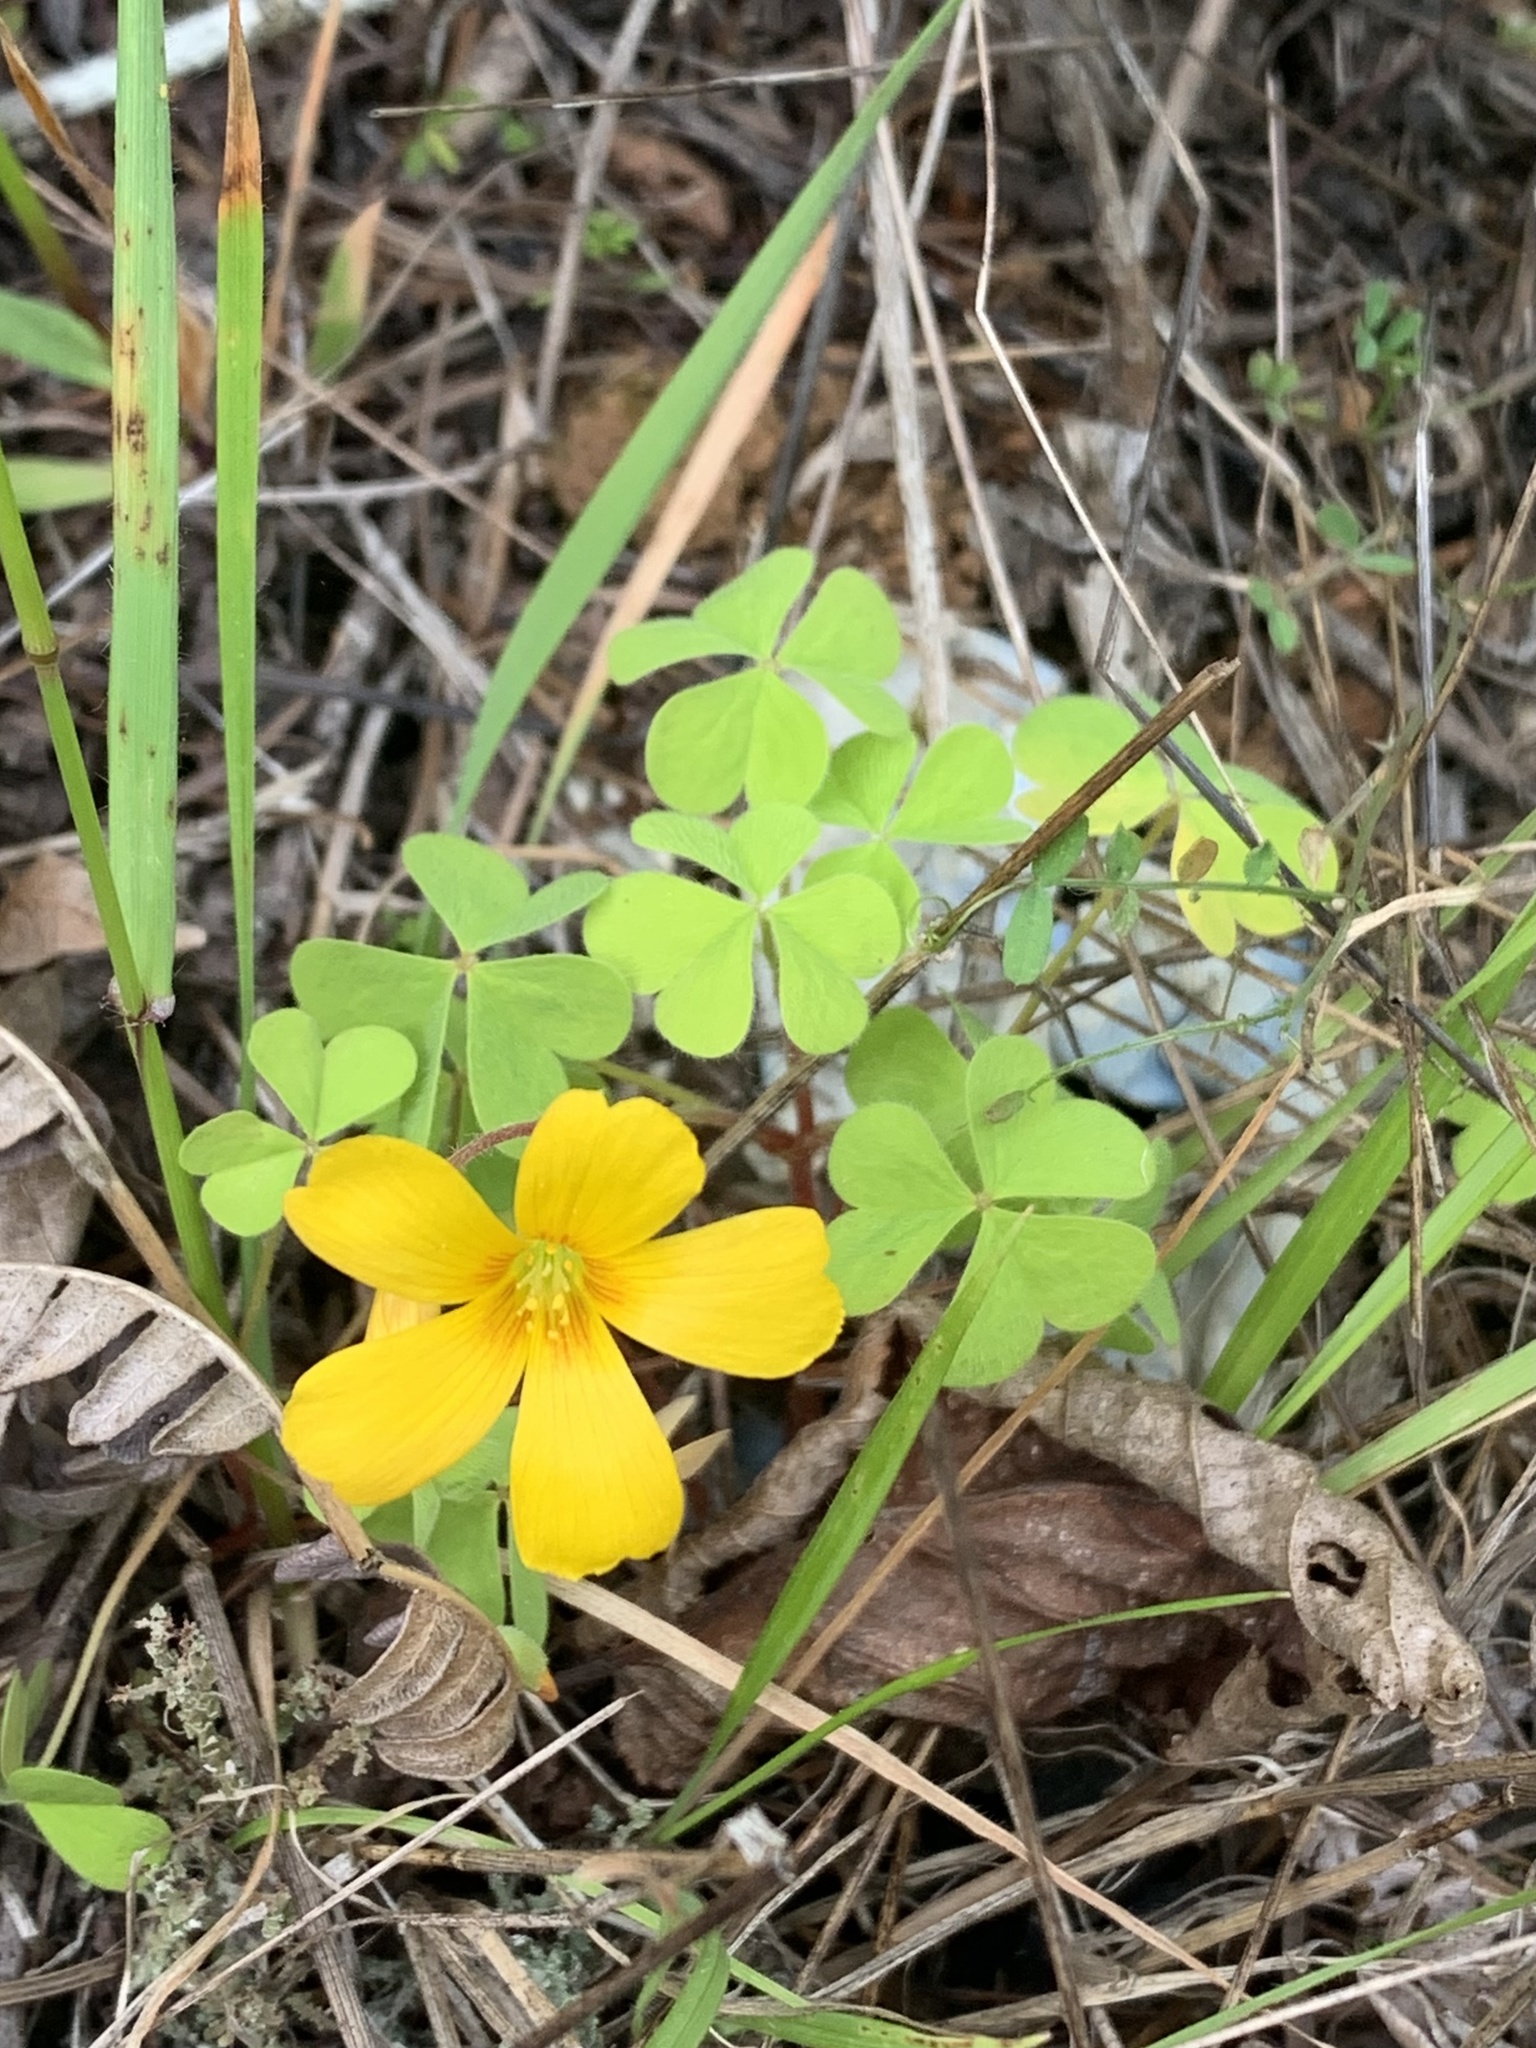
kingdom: Plantae
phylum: Tracheophyta
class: Magnoliopsida
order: Oxalidales
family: Oxalidaceae
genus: Oxalis
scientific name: Oxalis suksdorfii
